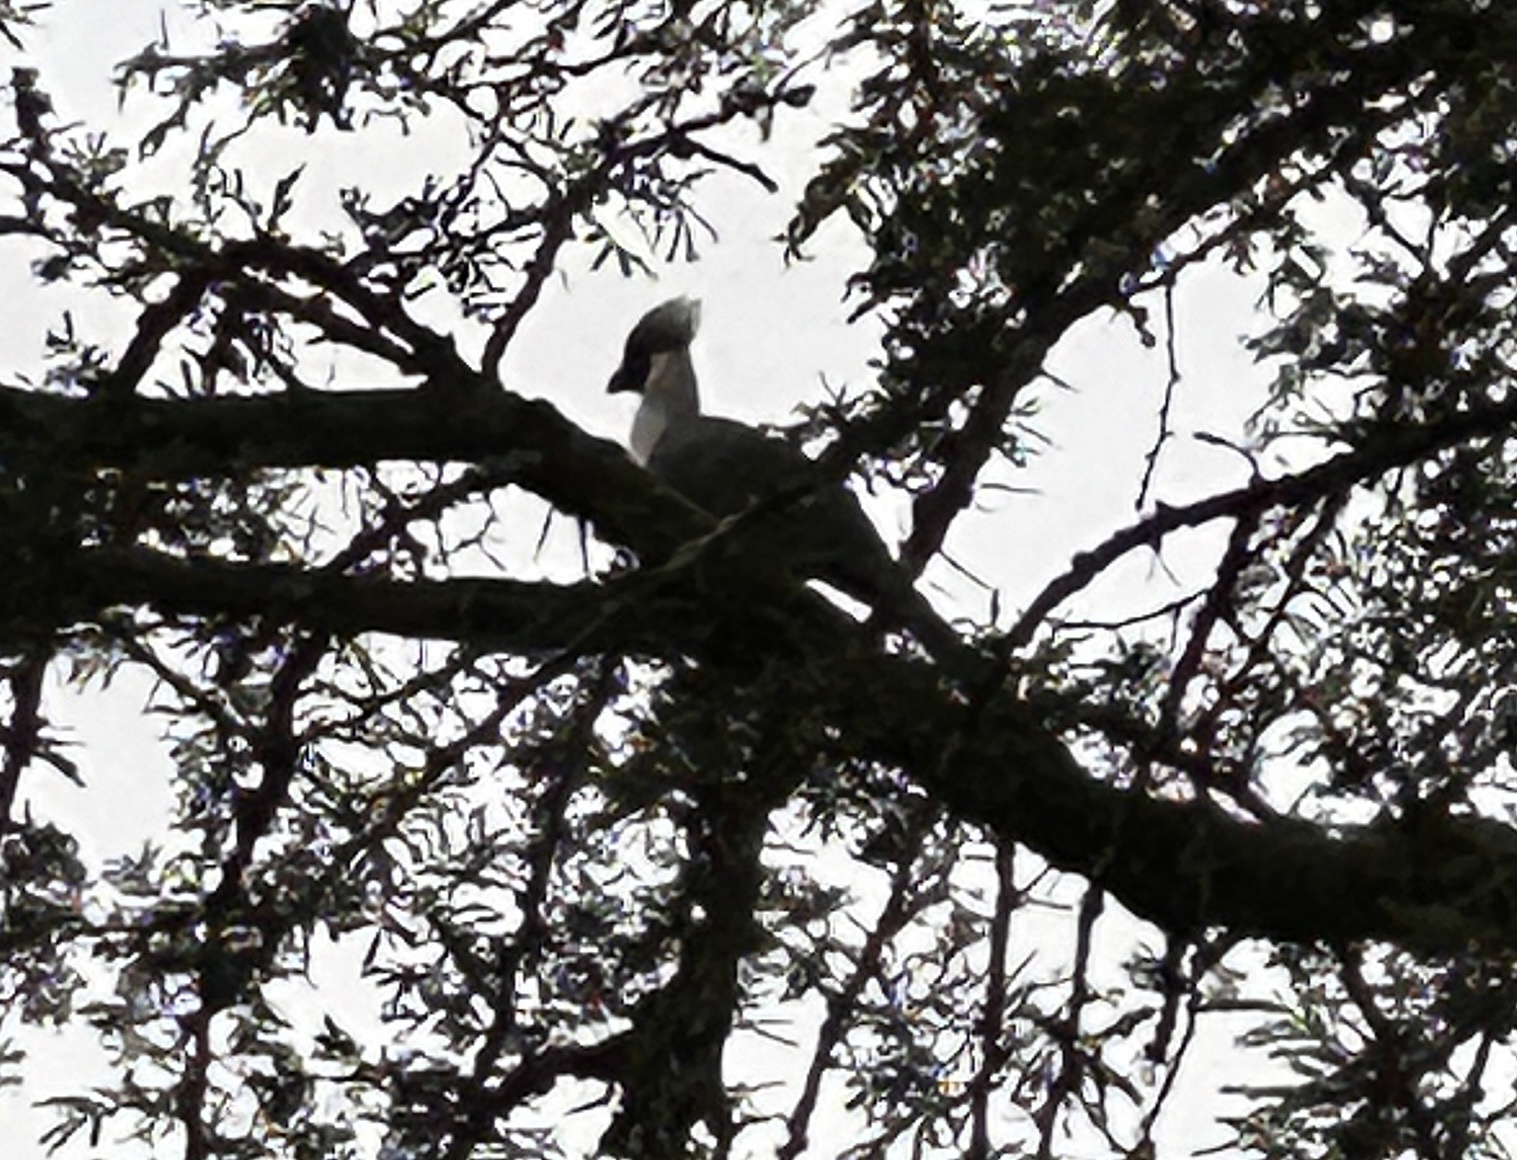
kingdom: Animalia
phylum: Chordata
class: Aves
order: Musophagiformes
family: Musophagidae
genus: Corythaixoides
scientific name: Corythaixoides personatus
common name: Bare-faced go-away-bird
